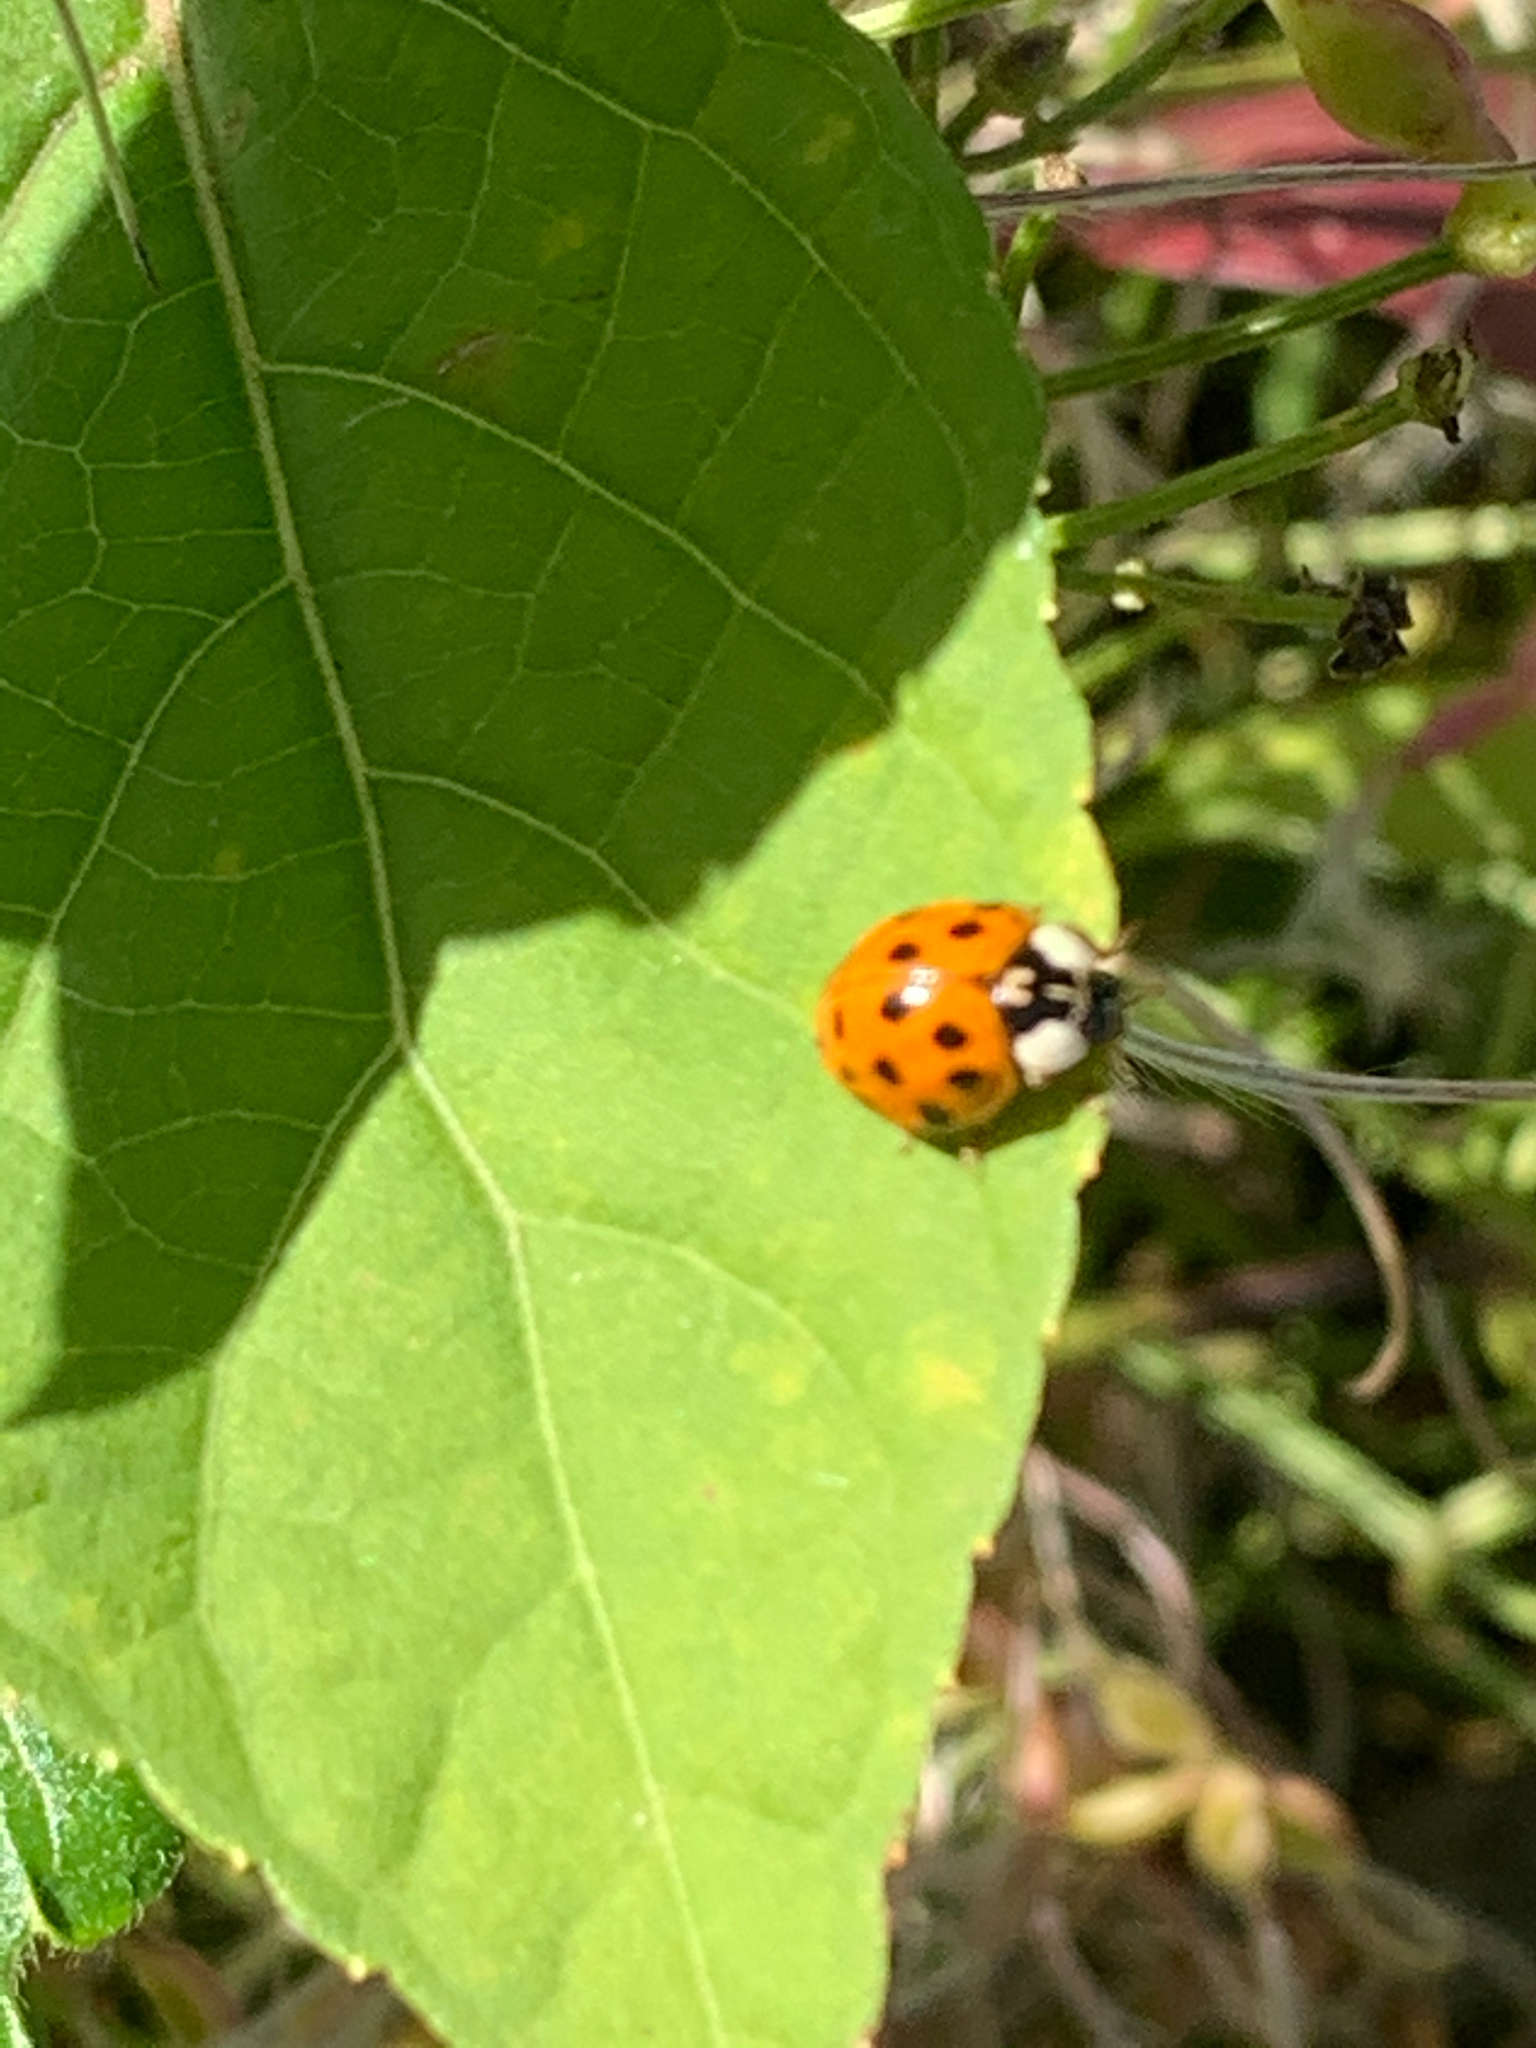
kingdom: Animalia
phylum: Arthropoda
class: Insecta
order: Coleoptera
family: Coccinellidae
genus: Harmonia
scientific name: Harmonia axyridis
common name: Harlequin ladybird
